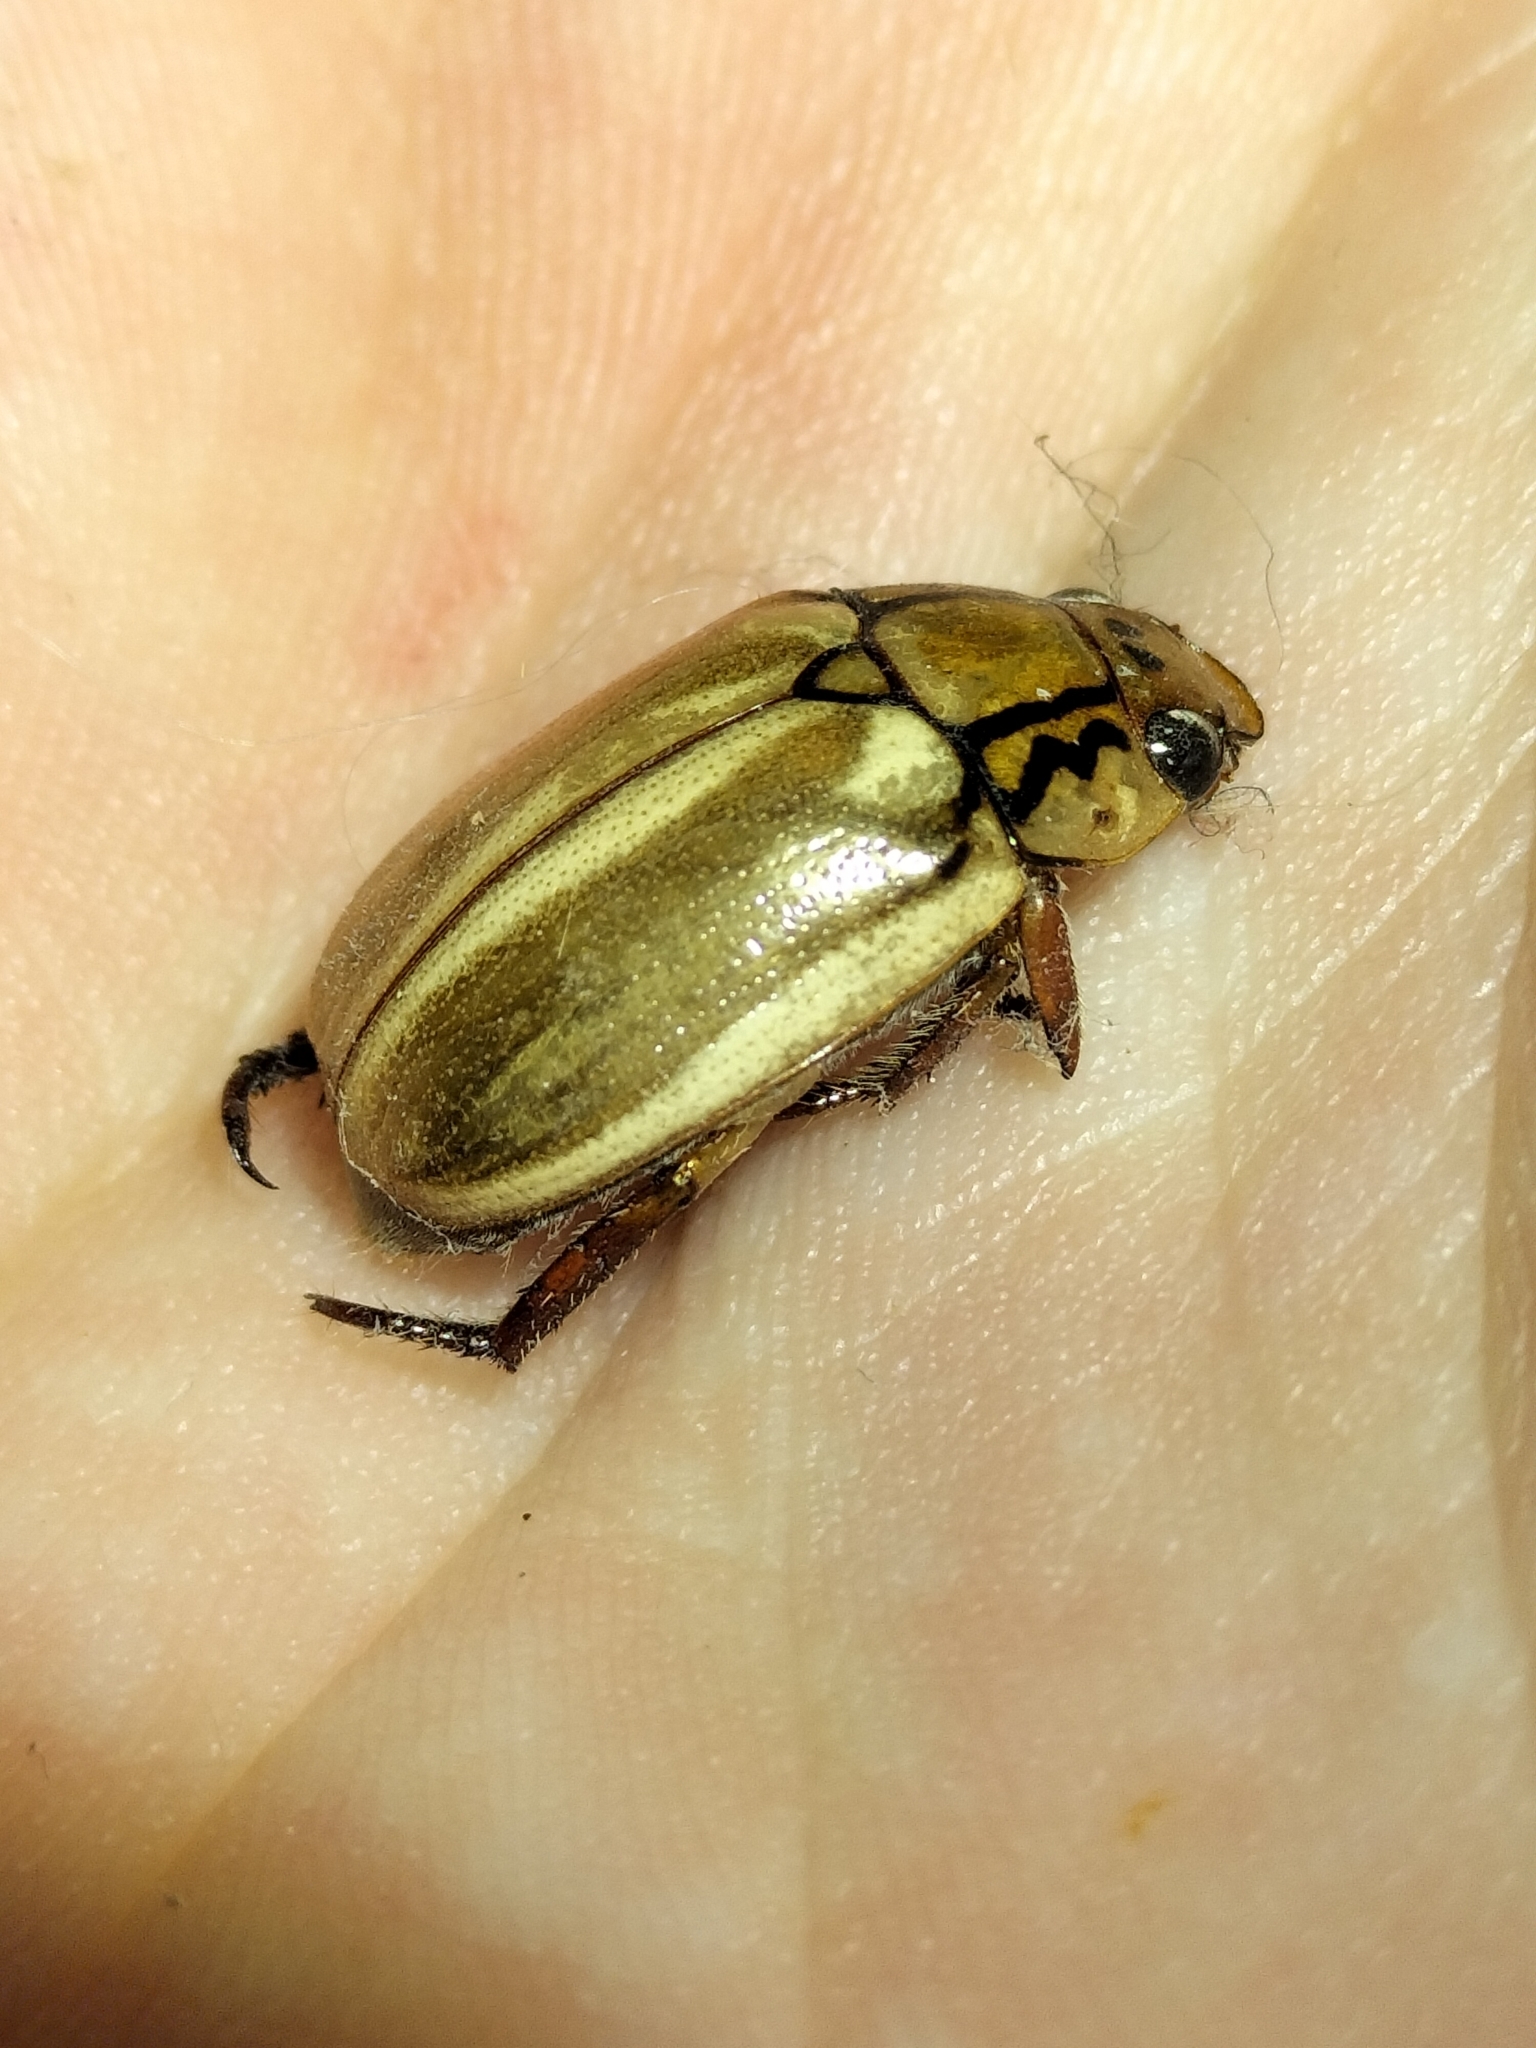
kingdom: Animalia
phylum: Arthropoda
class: Insecta
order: Coleoptera
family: Scarabaeidae
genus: Anoplognathus
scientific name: Anoplognathus abnormis
